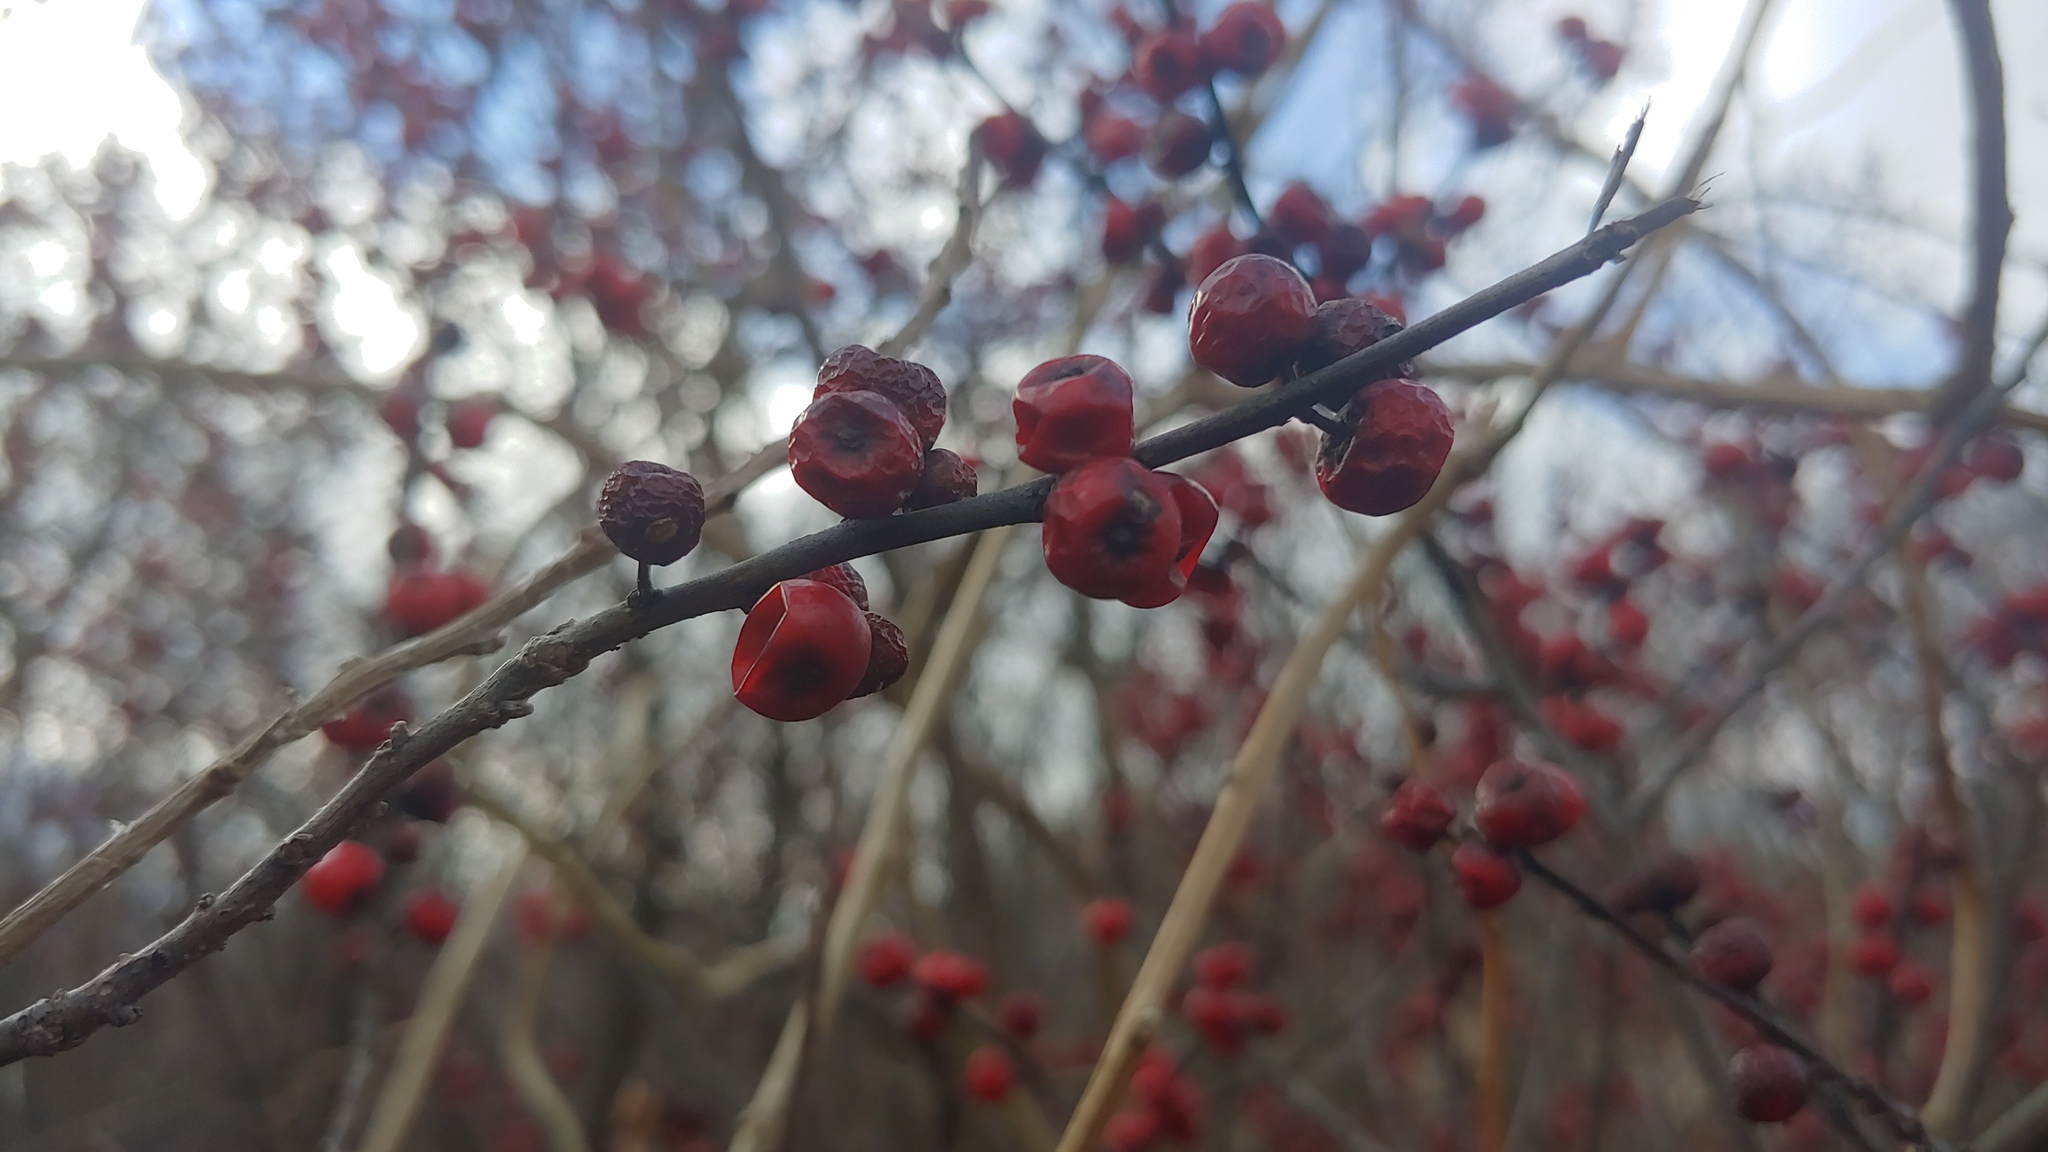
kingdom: Plantae
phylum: Tracheophyta
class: Magnoliopsida
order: Aquifoliales
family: Aquifoliaceae
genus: Ilex
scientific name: Ilex verticillata
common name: Virginia winterberry
